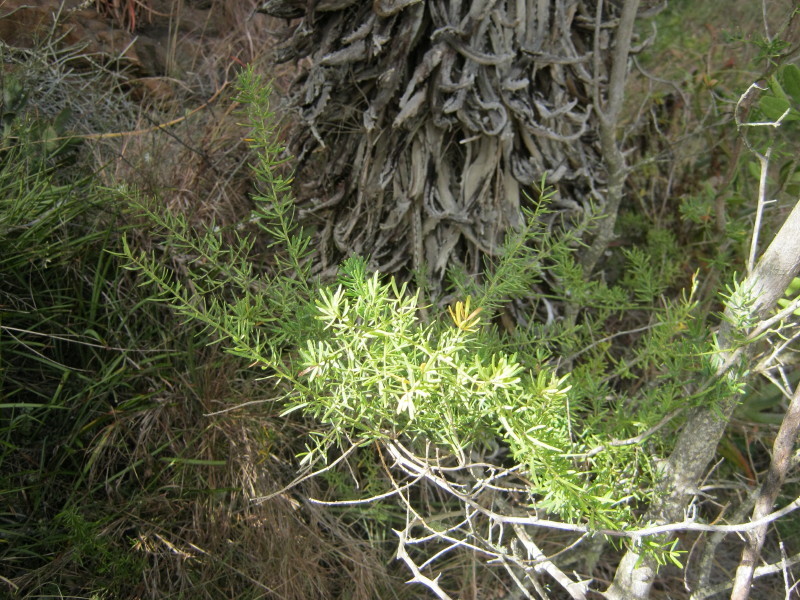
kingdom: Plantae
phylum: Tracheophyta
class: Liliopsida
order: Asparagales
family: Asparagaceae
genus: Asparagus
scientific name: Asparagus aethiopicus
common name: Sprenger's asparagus fern
